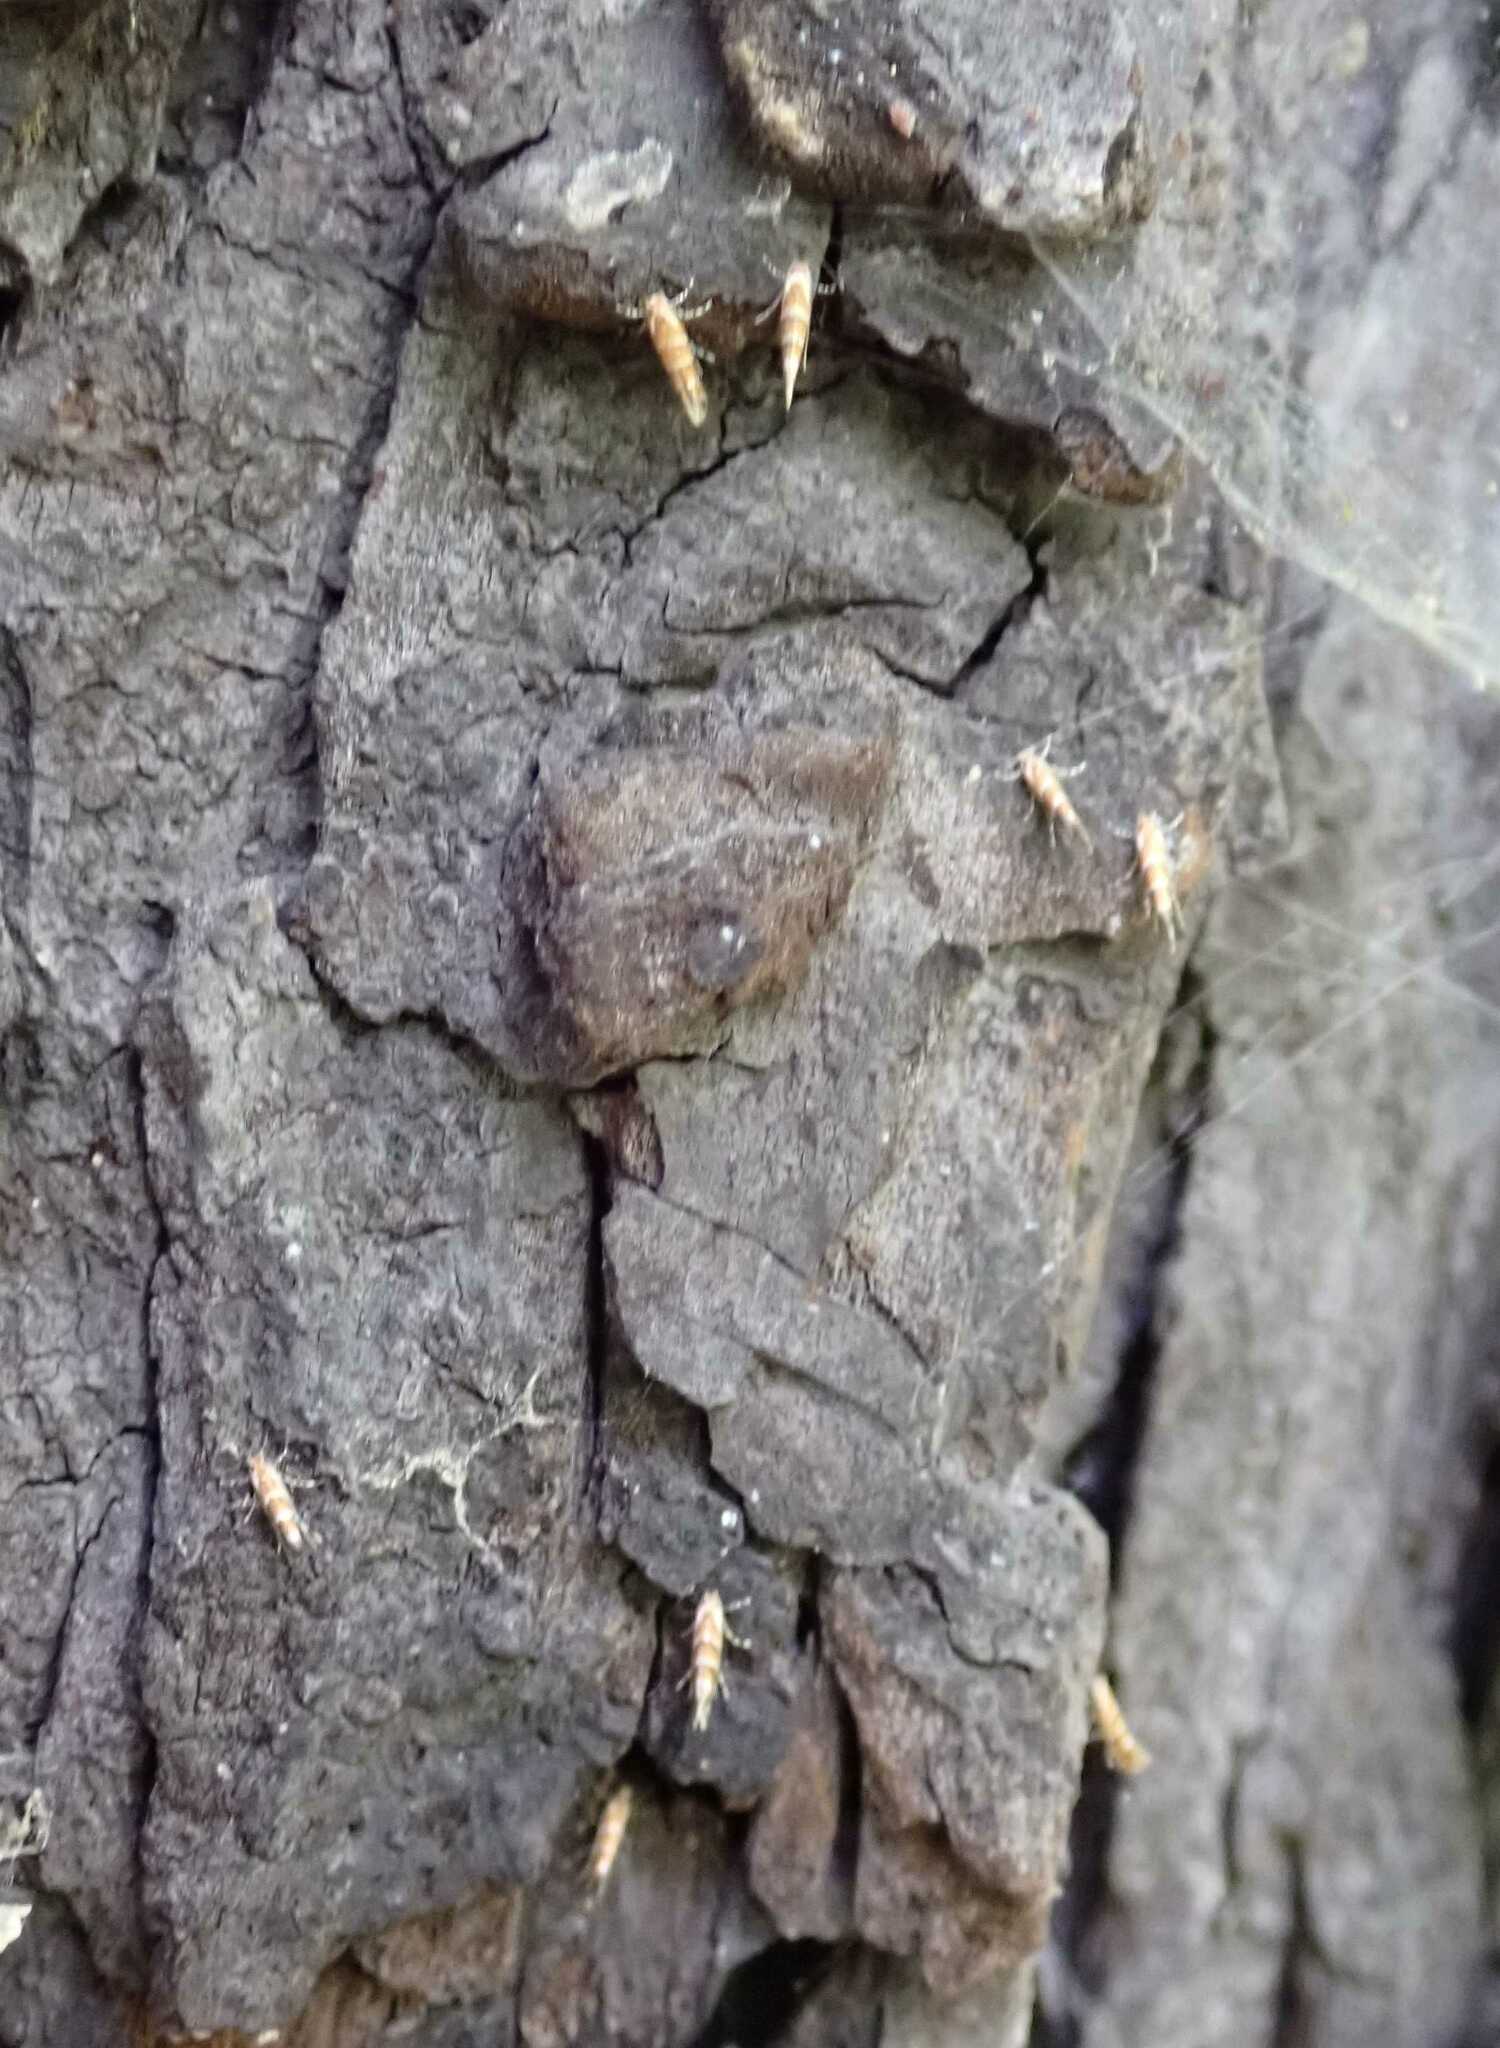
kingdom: Animalia
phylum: Arthropoda
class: Insecta
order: Lepidoptera
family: Gracillariidae
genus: Cameraria
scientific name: Cameraria ohridella
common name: Horse-chestnut leaf-miner
